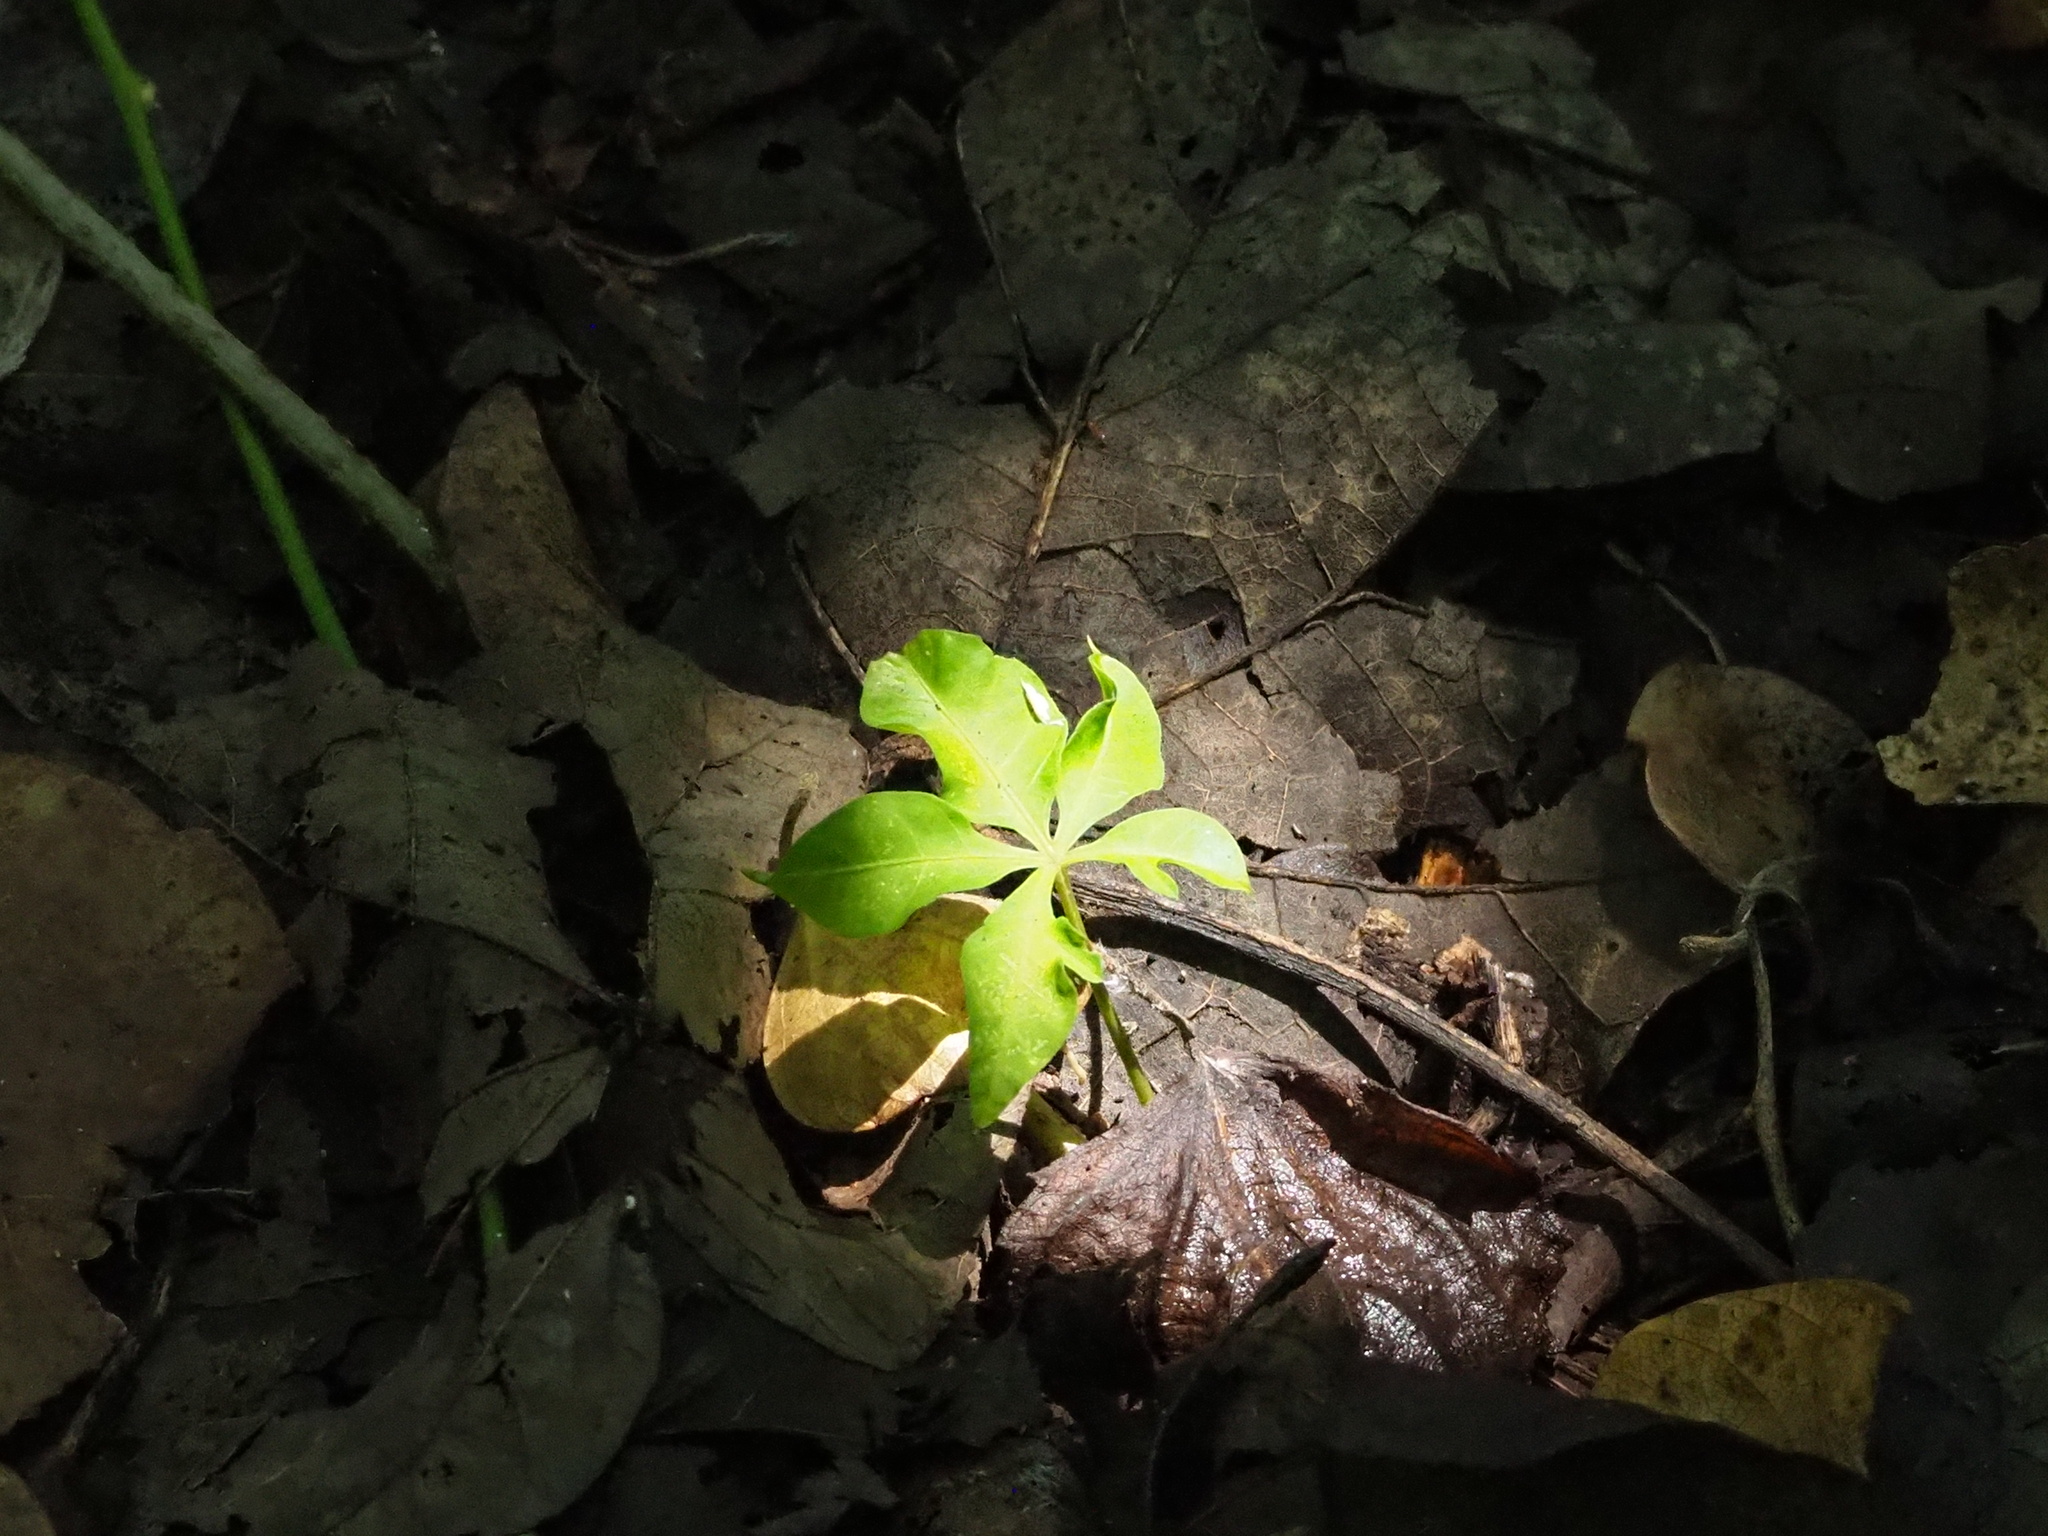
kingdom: Plantae
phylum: Tracheophyta
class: Magnoliopsida
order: Solanales
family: Convolvulaceae
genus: Ipomoea
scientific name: Ipomoea cairica
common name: Mile a minute vine
